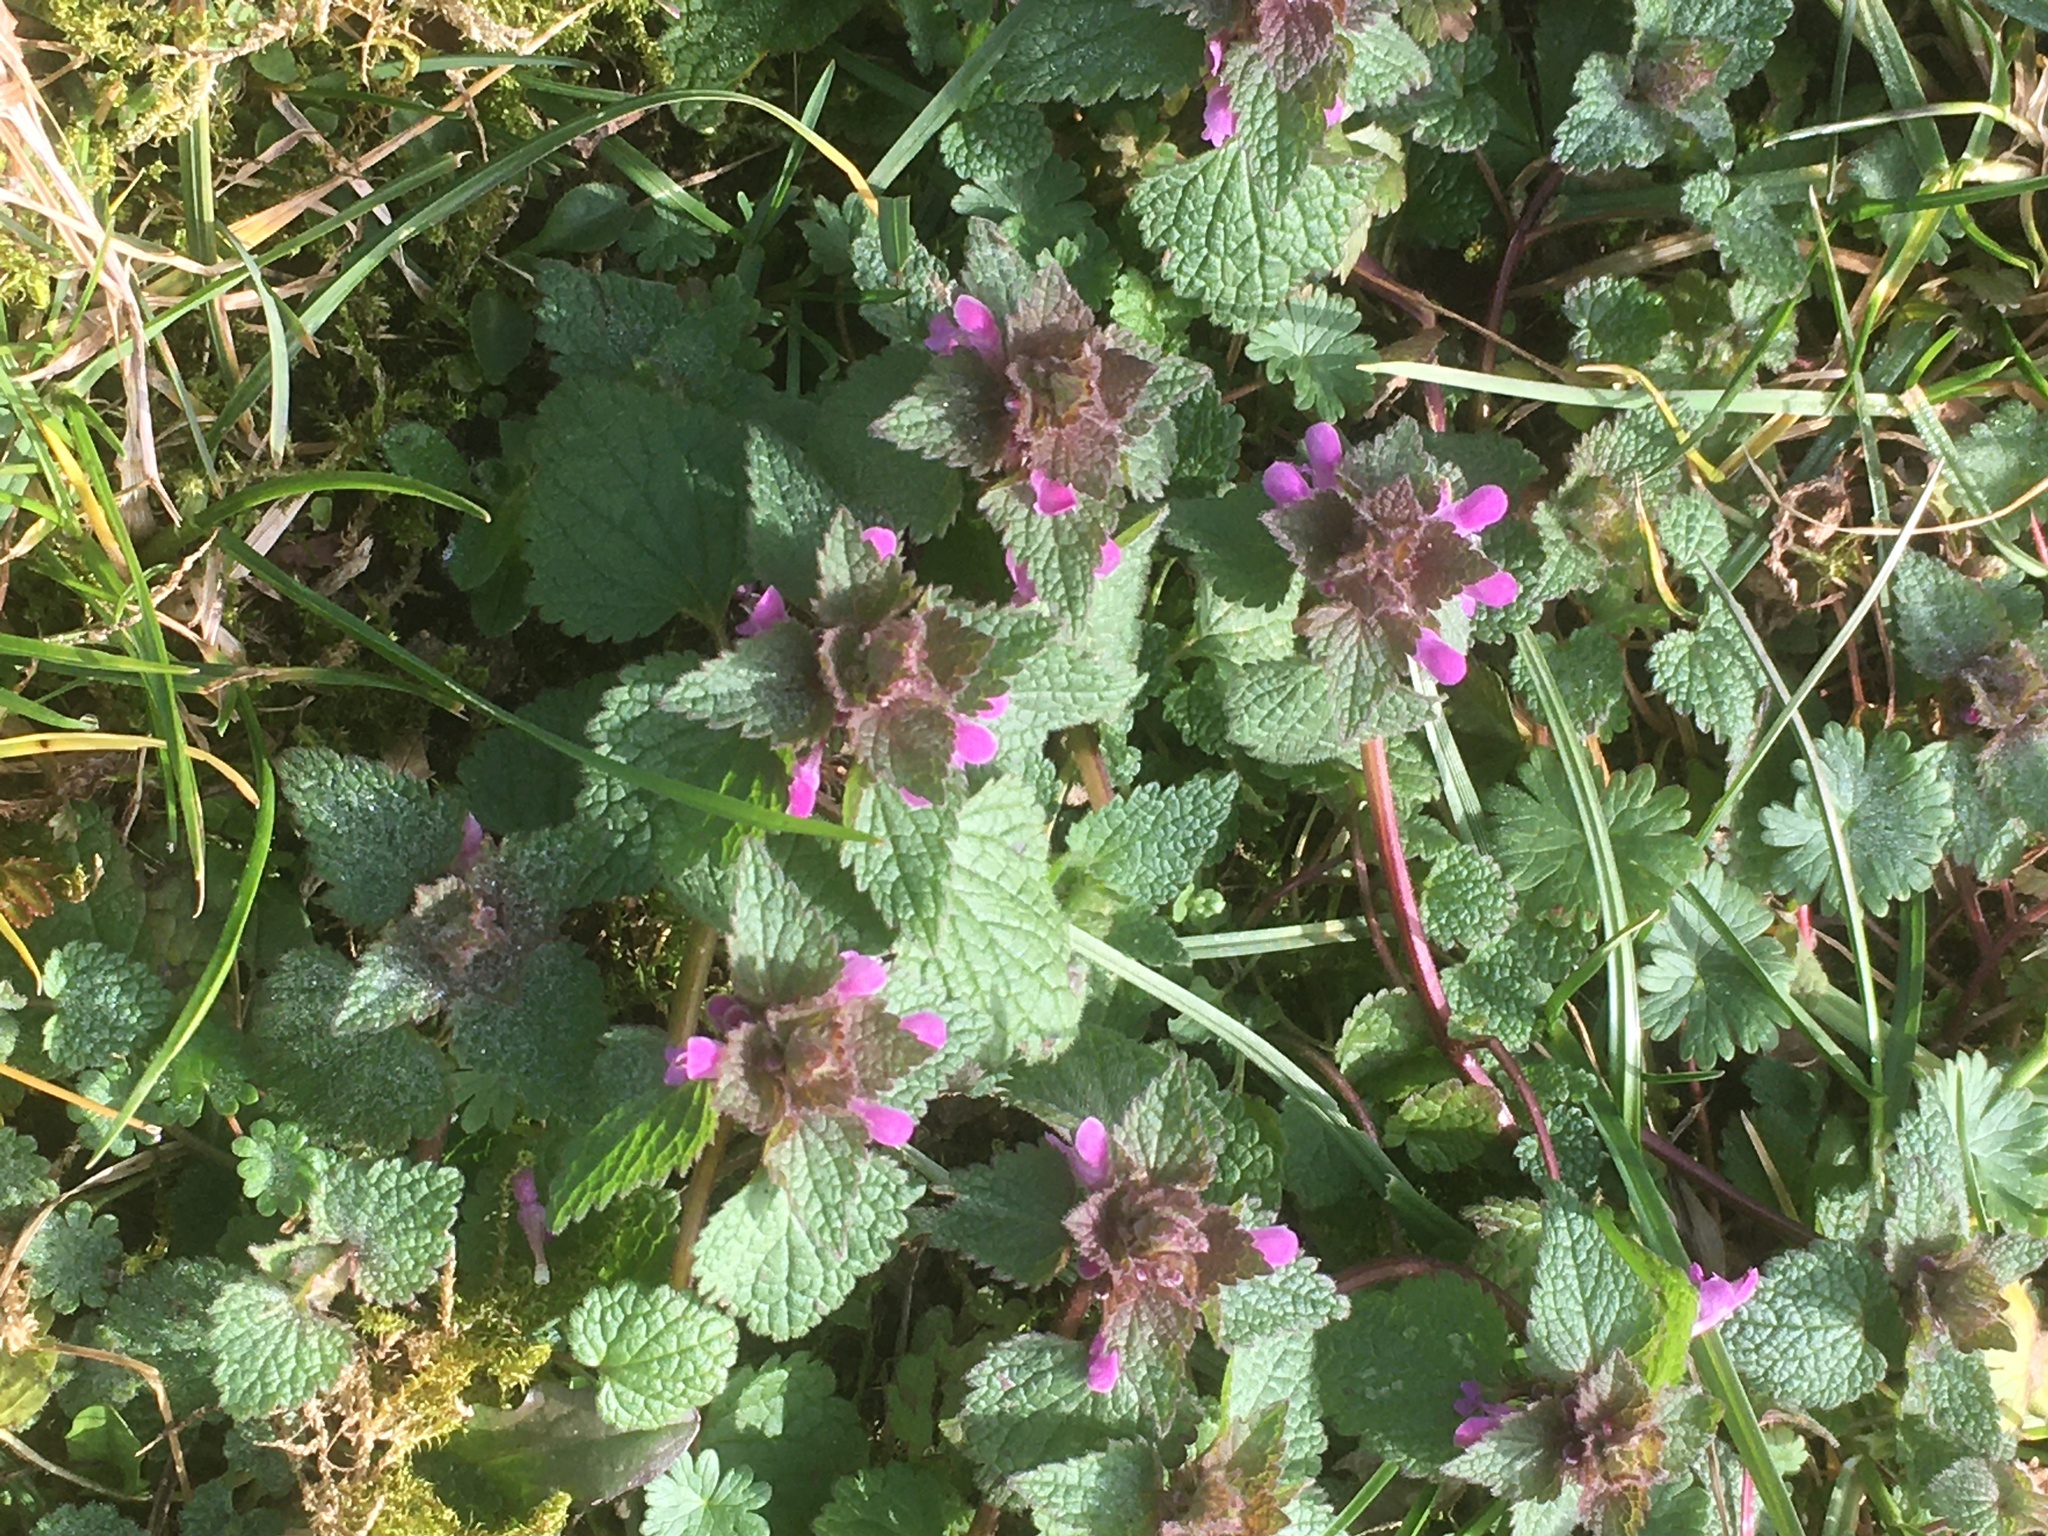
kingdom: Plantae
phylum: Tracheophyta
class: Magnoliopsida
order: Lamiales
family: Lamiaceae
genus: Lamium
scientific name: Lamium purpureum
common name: Red dead-nettle
